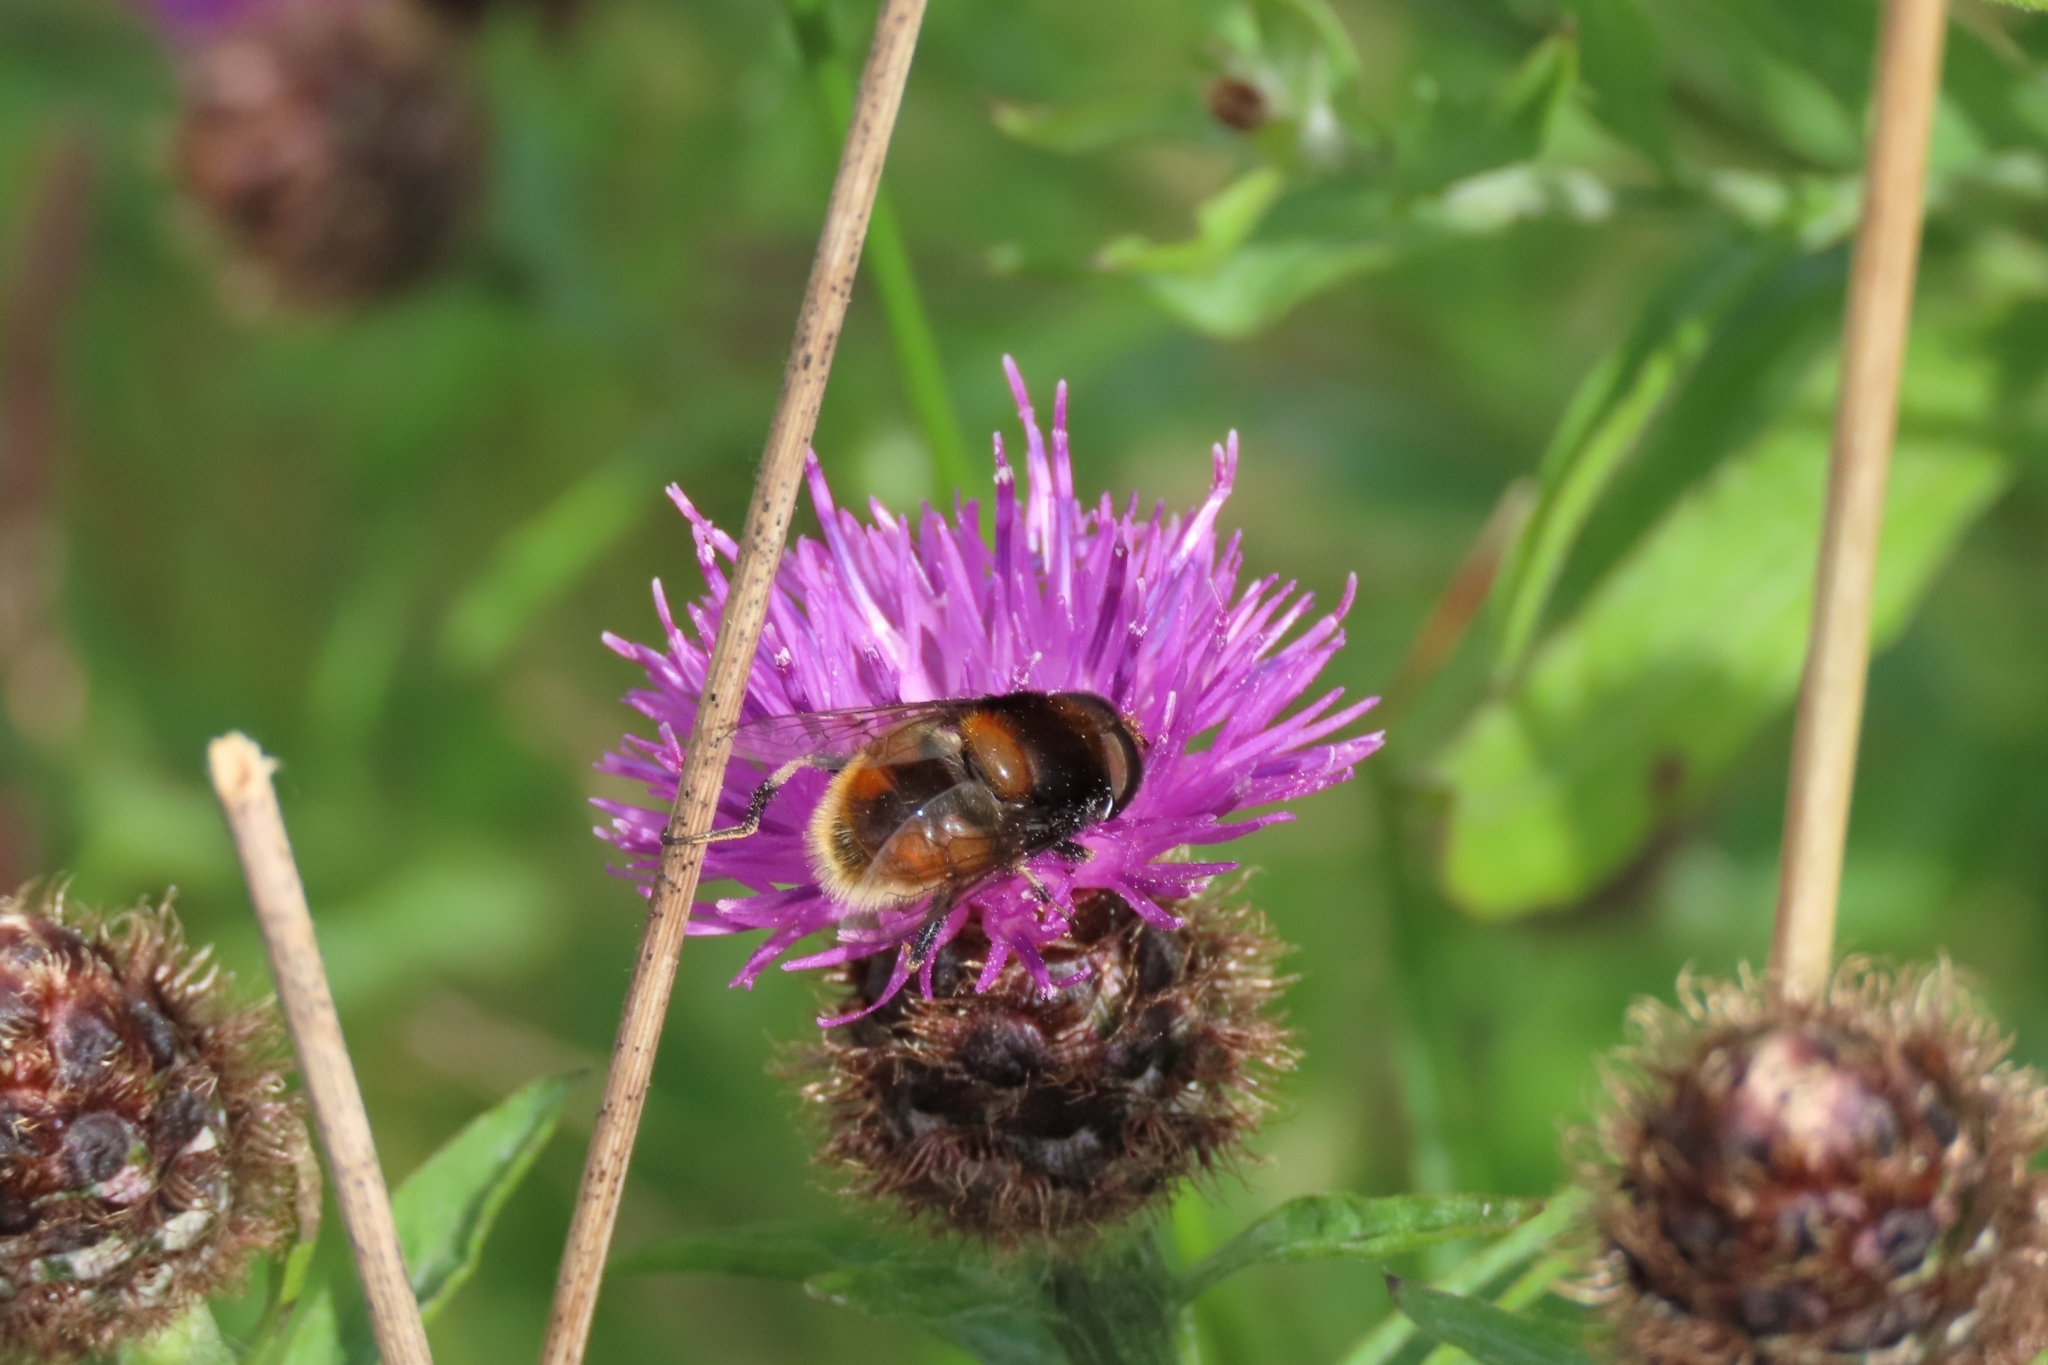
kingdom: Animalia
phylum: Arthropoda
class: Insecta
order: Diptera
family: Syrphidae
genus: Eristalis
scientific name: Eristalis intricaria
